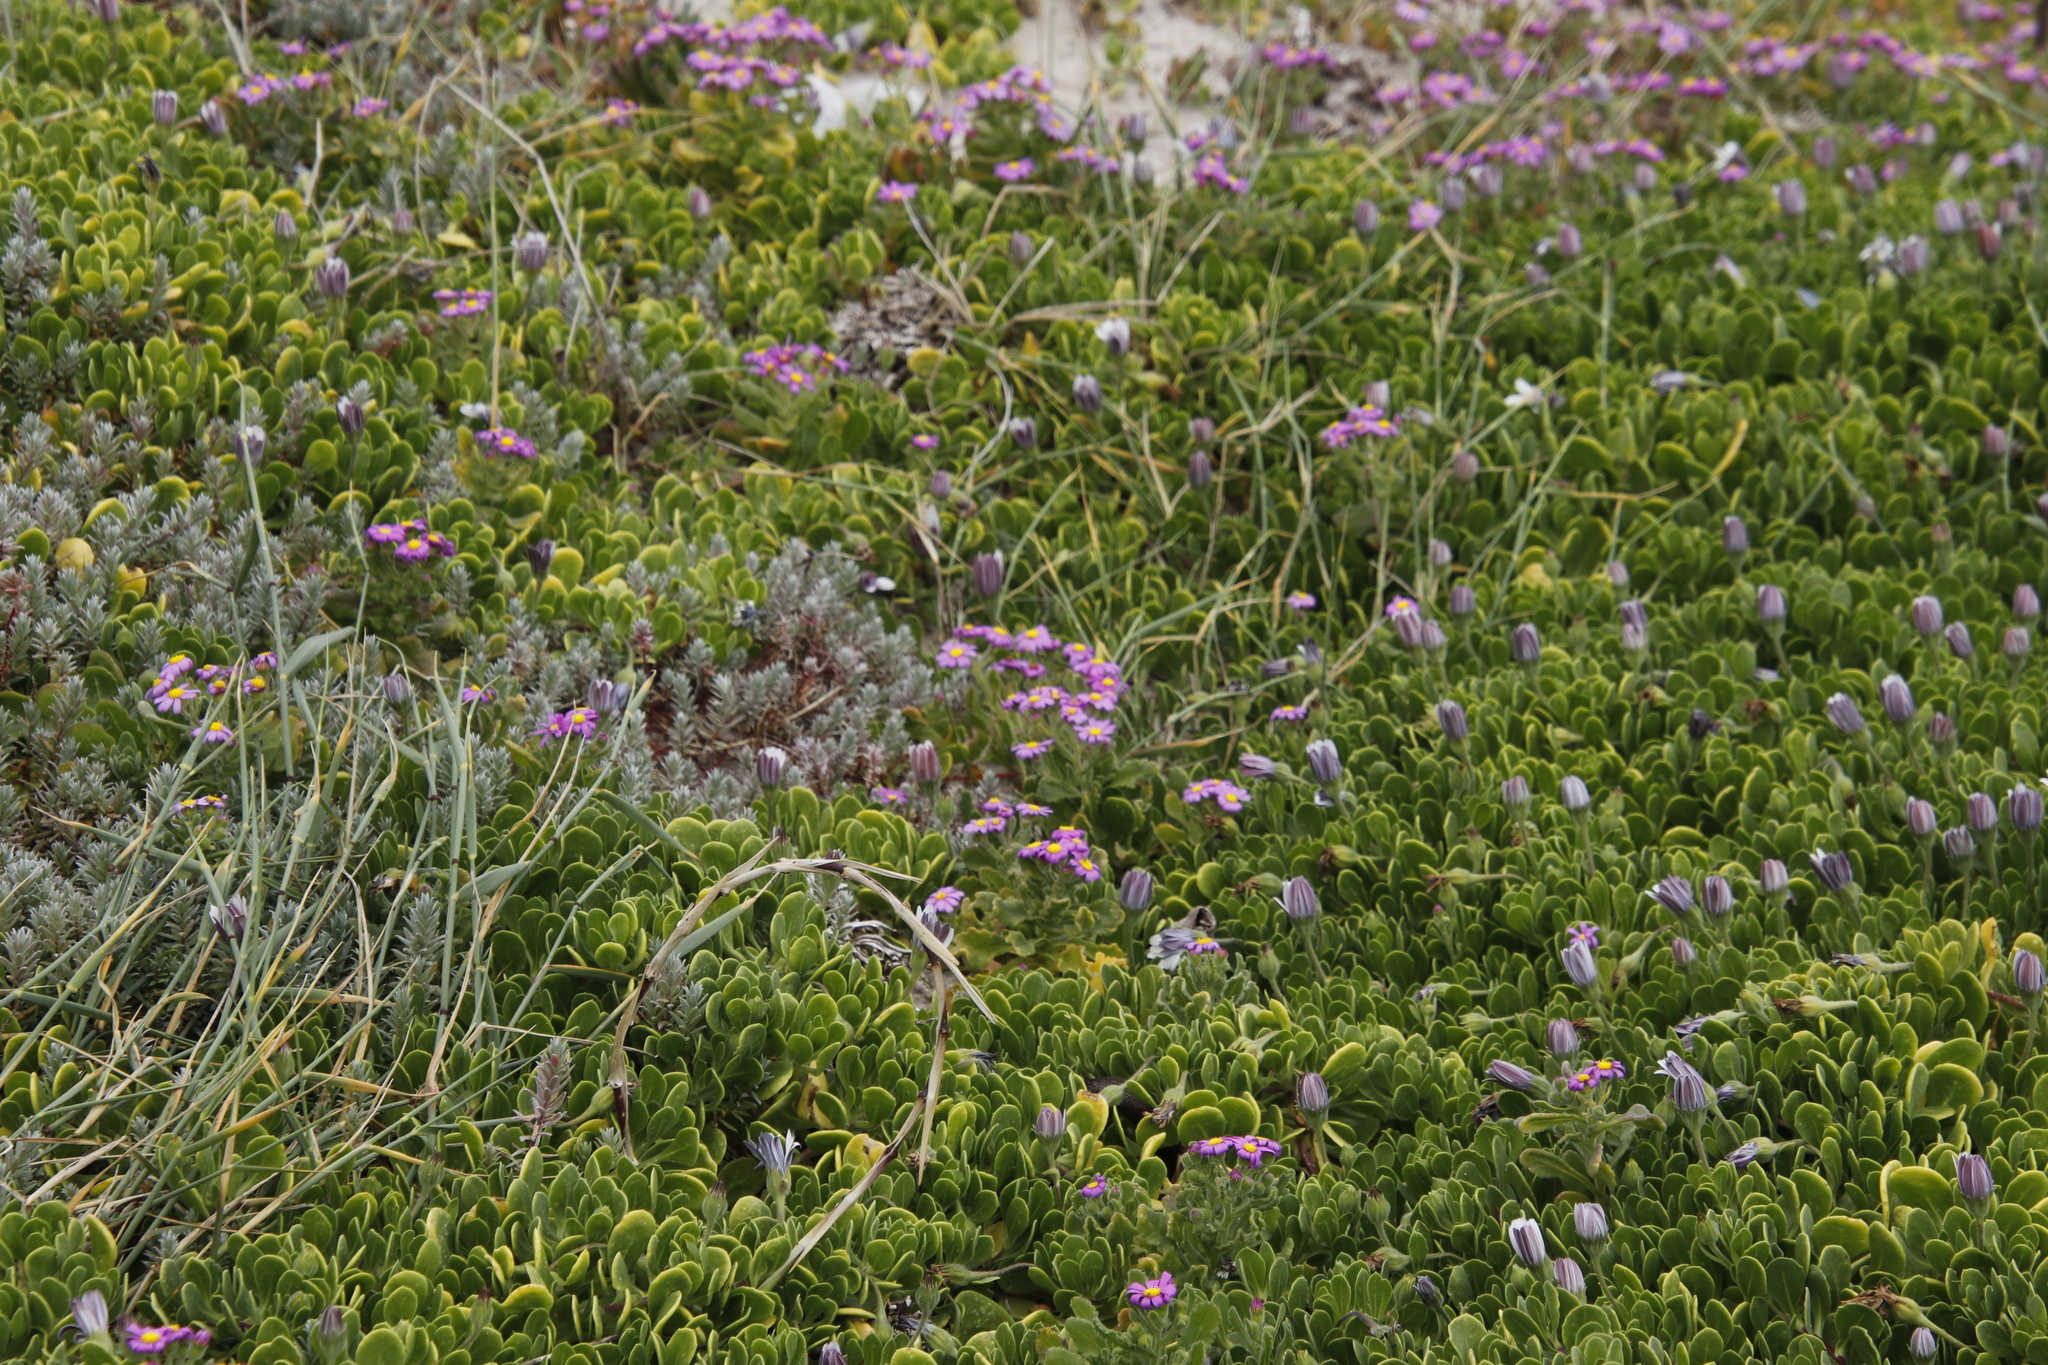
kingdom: Plantae
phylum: Tracheophyta
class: Magnoliopsida
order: Asterales
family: Asteraceae
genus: Senecio
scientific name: Senecio elegans
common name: Purple groundsel
